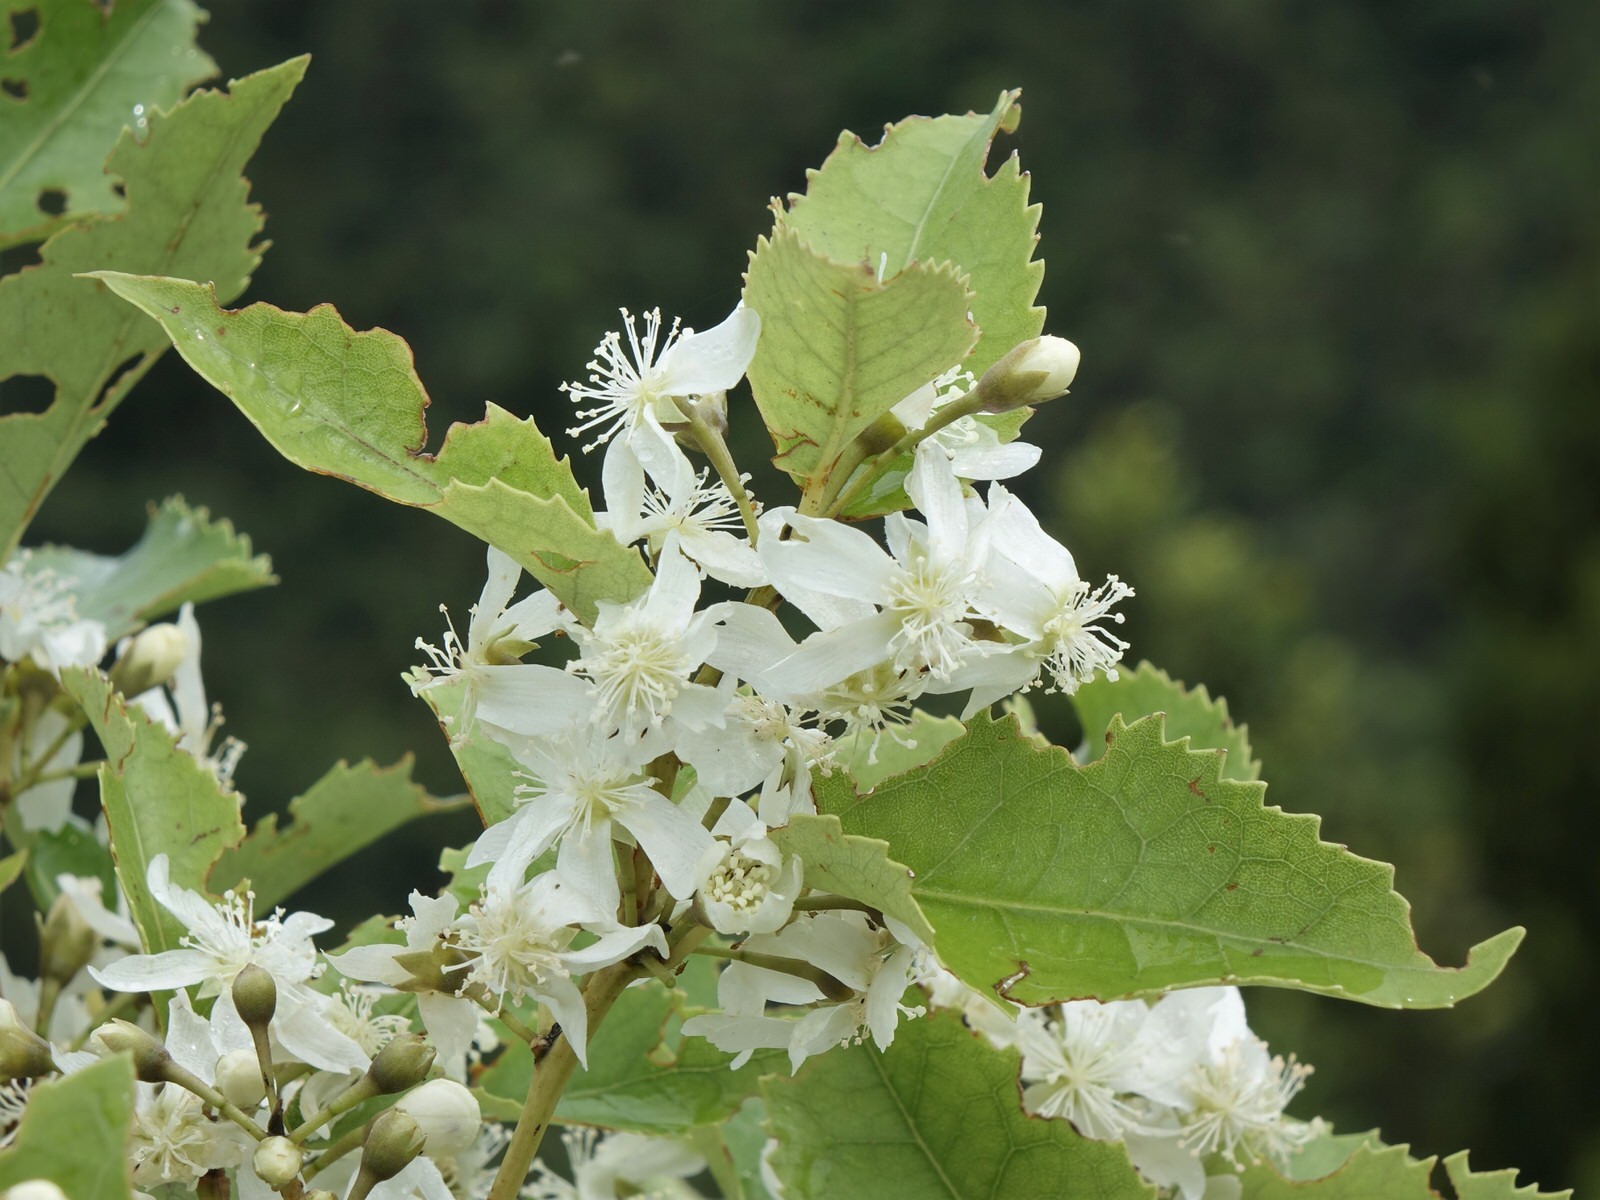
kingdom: Plantae
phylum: Tracheophyta
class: Magnoliopsida
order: Malvales
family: Malvaceae
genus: Hoheria
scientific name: Hoheria populnea
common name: Lacebark
